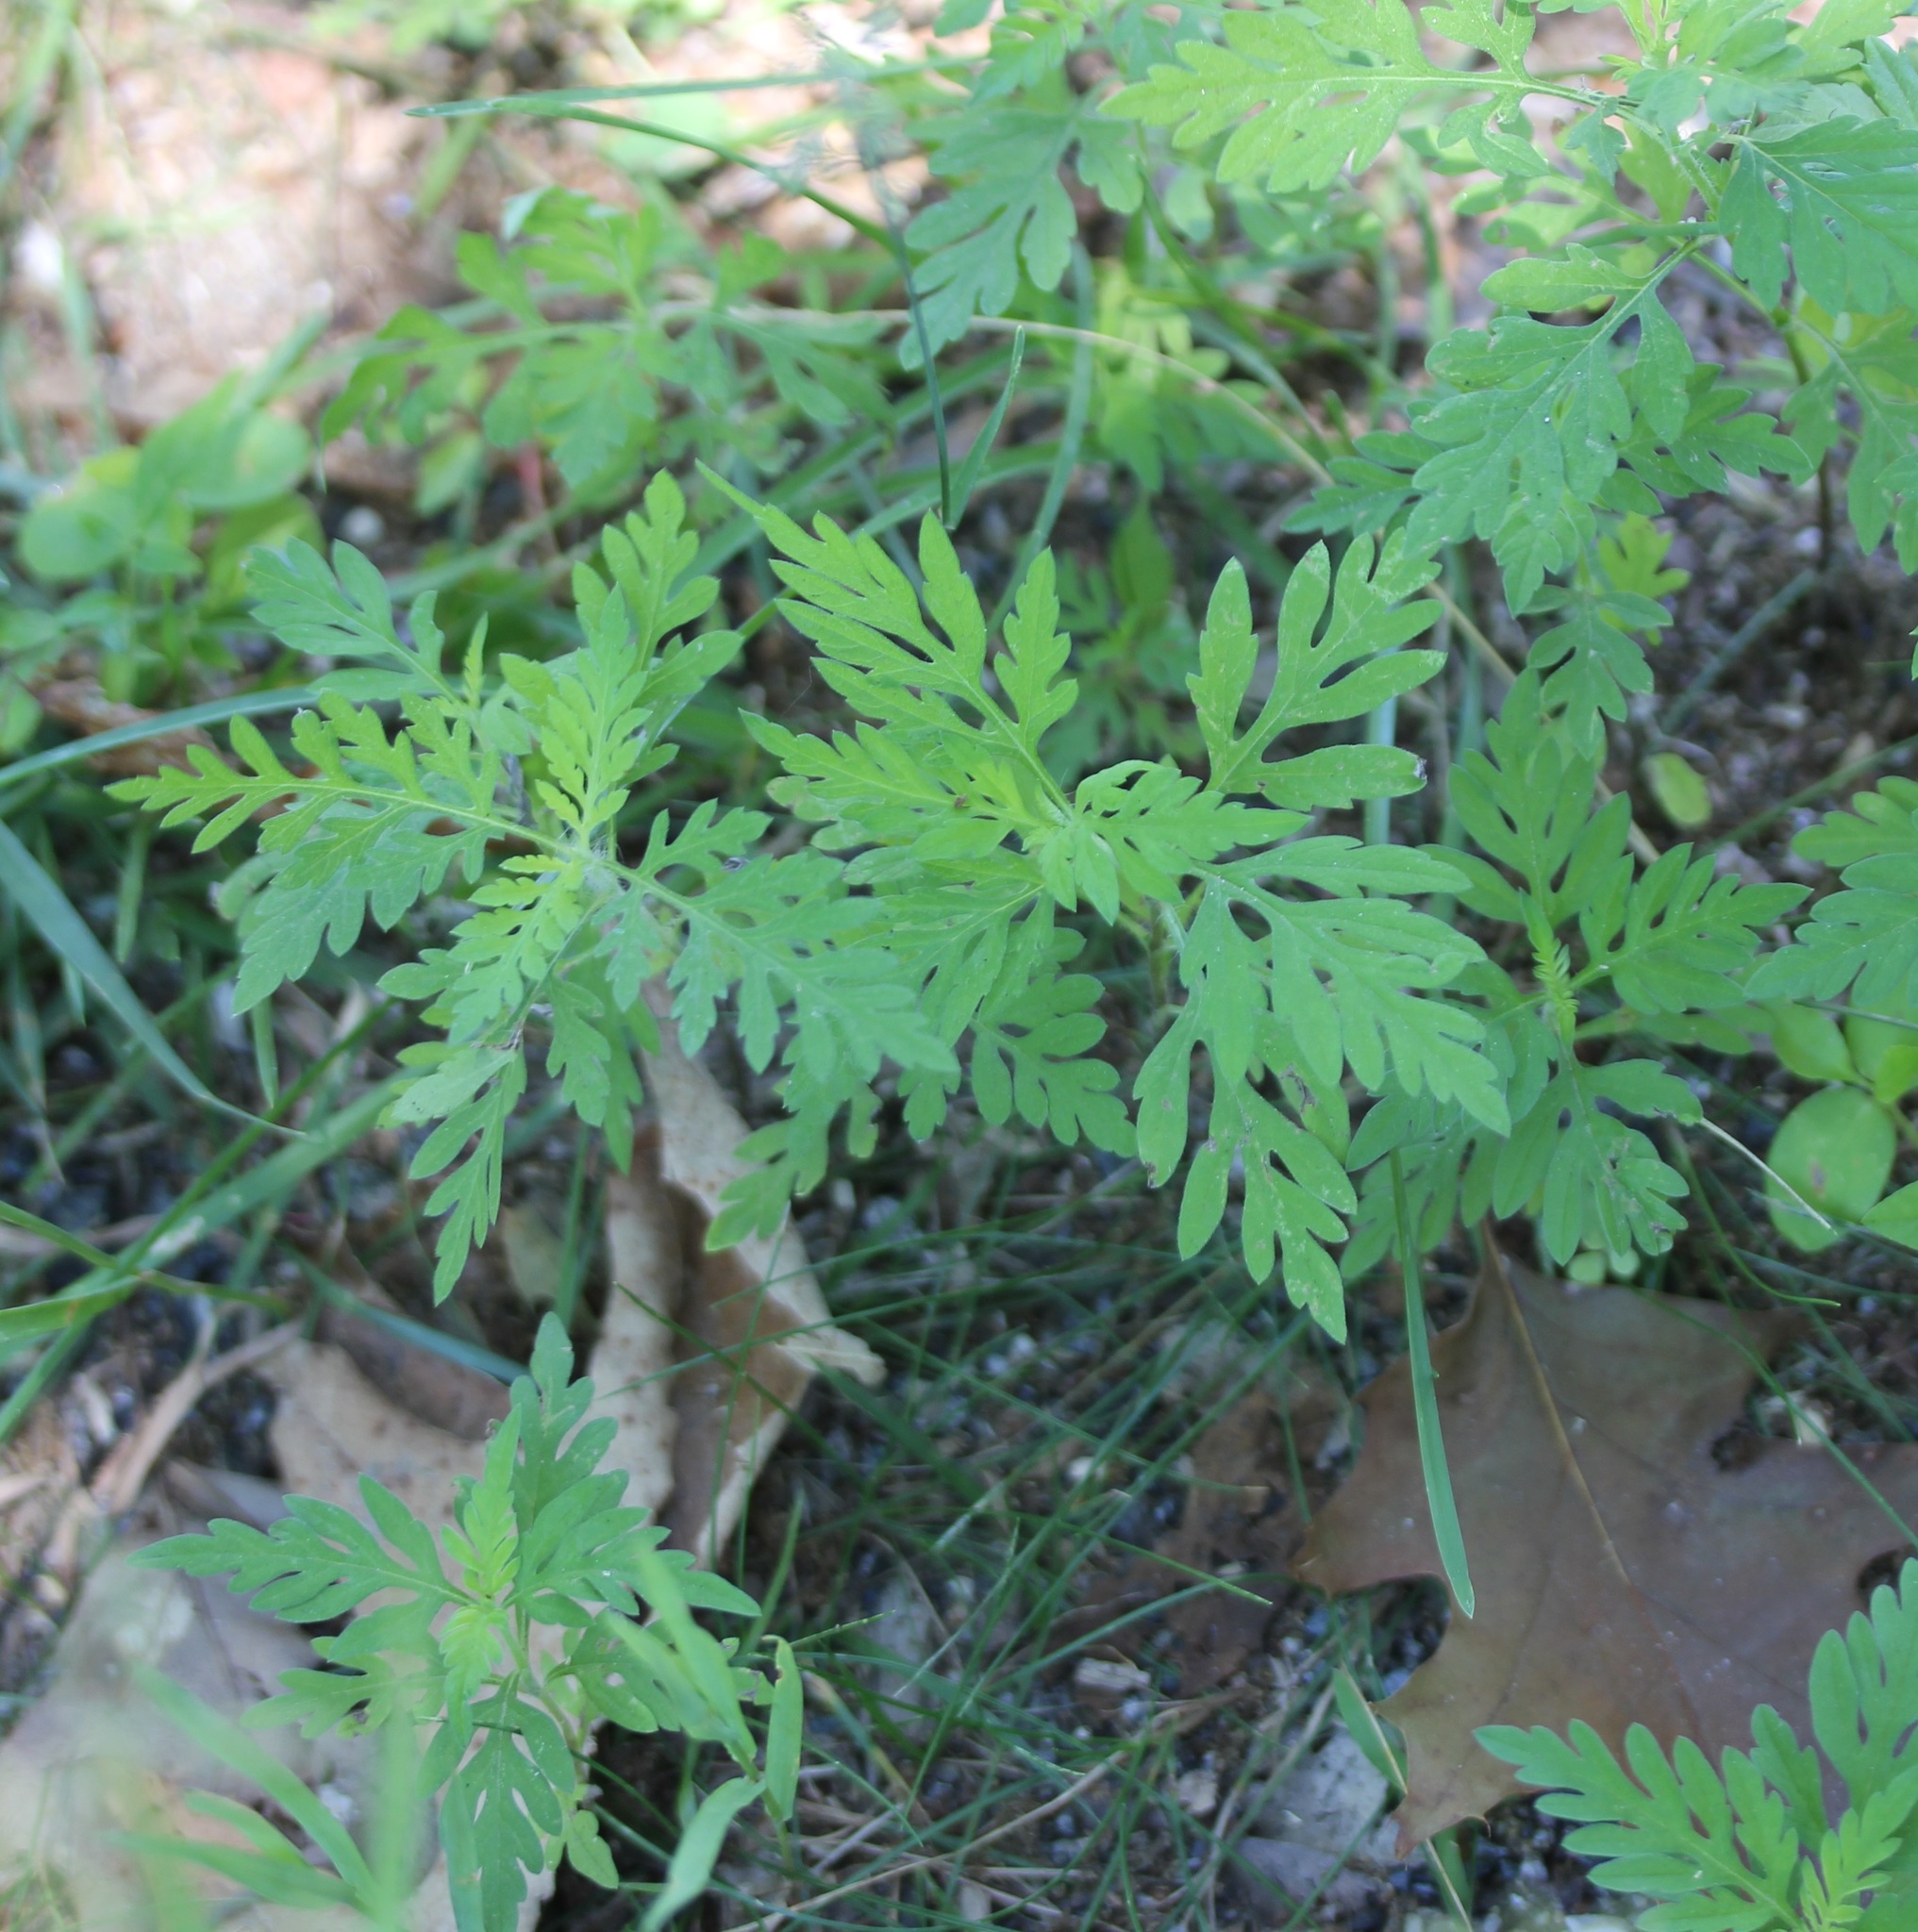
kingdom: Plantae
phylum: Tracheophyta
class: Magnoliopsida
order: Asterales
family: Asteraceae
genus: Ambrosia
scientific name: Ambrosia artemisiifolia
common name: Annual ragweed
